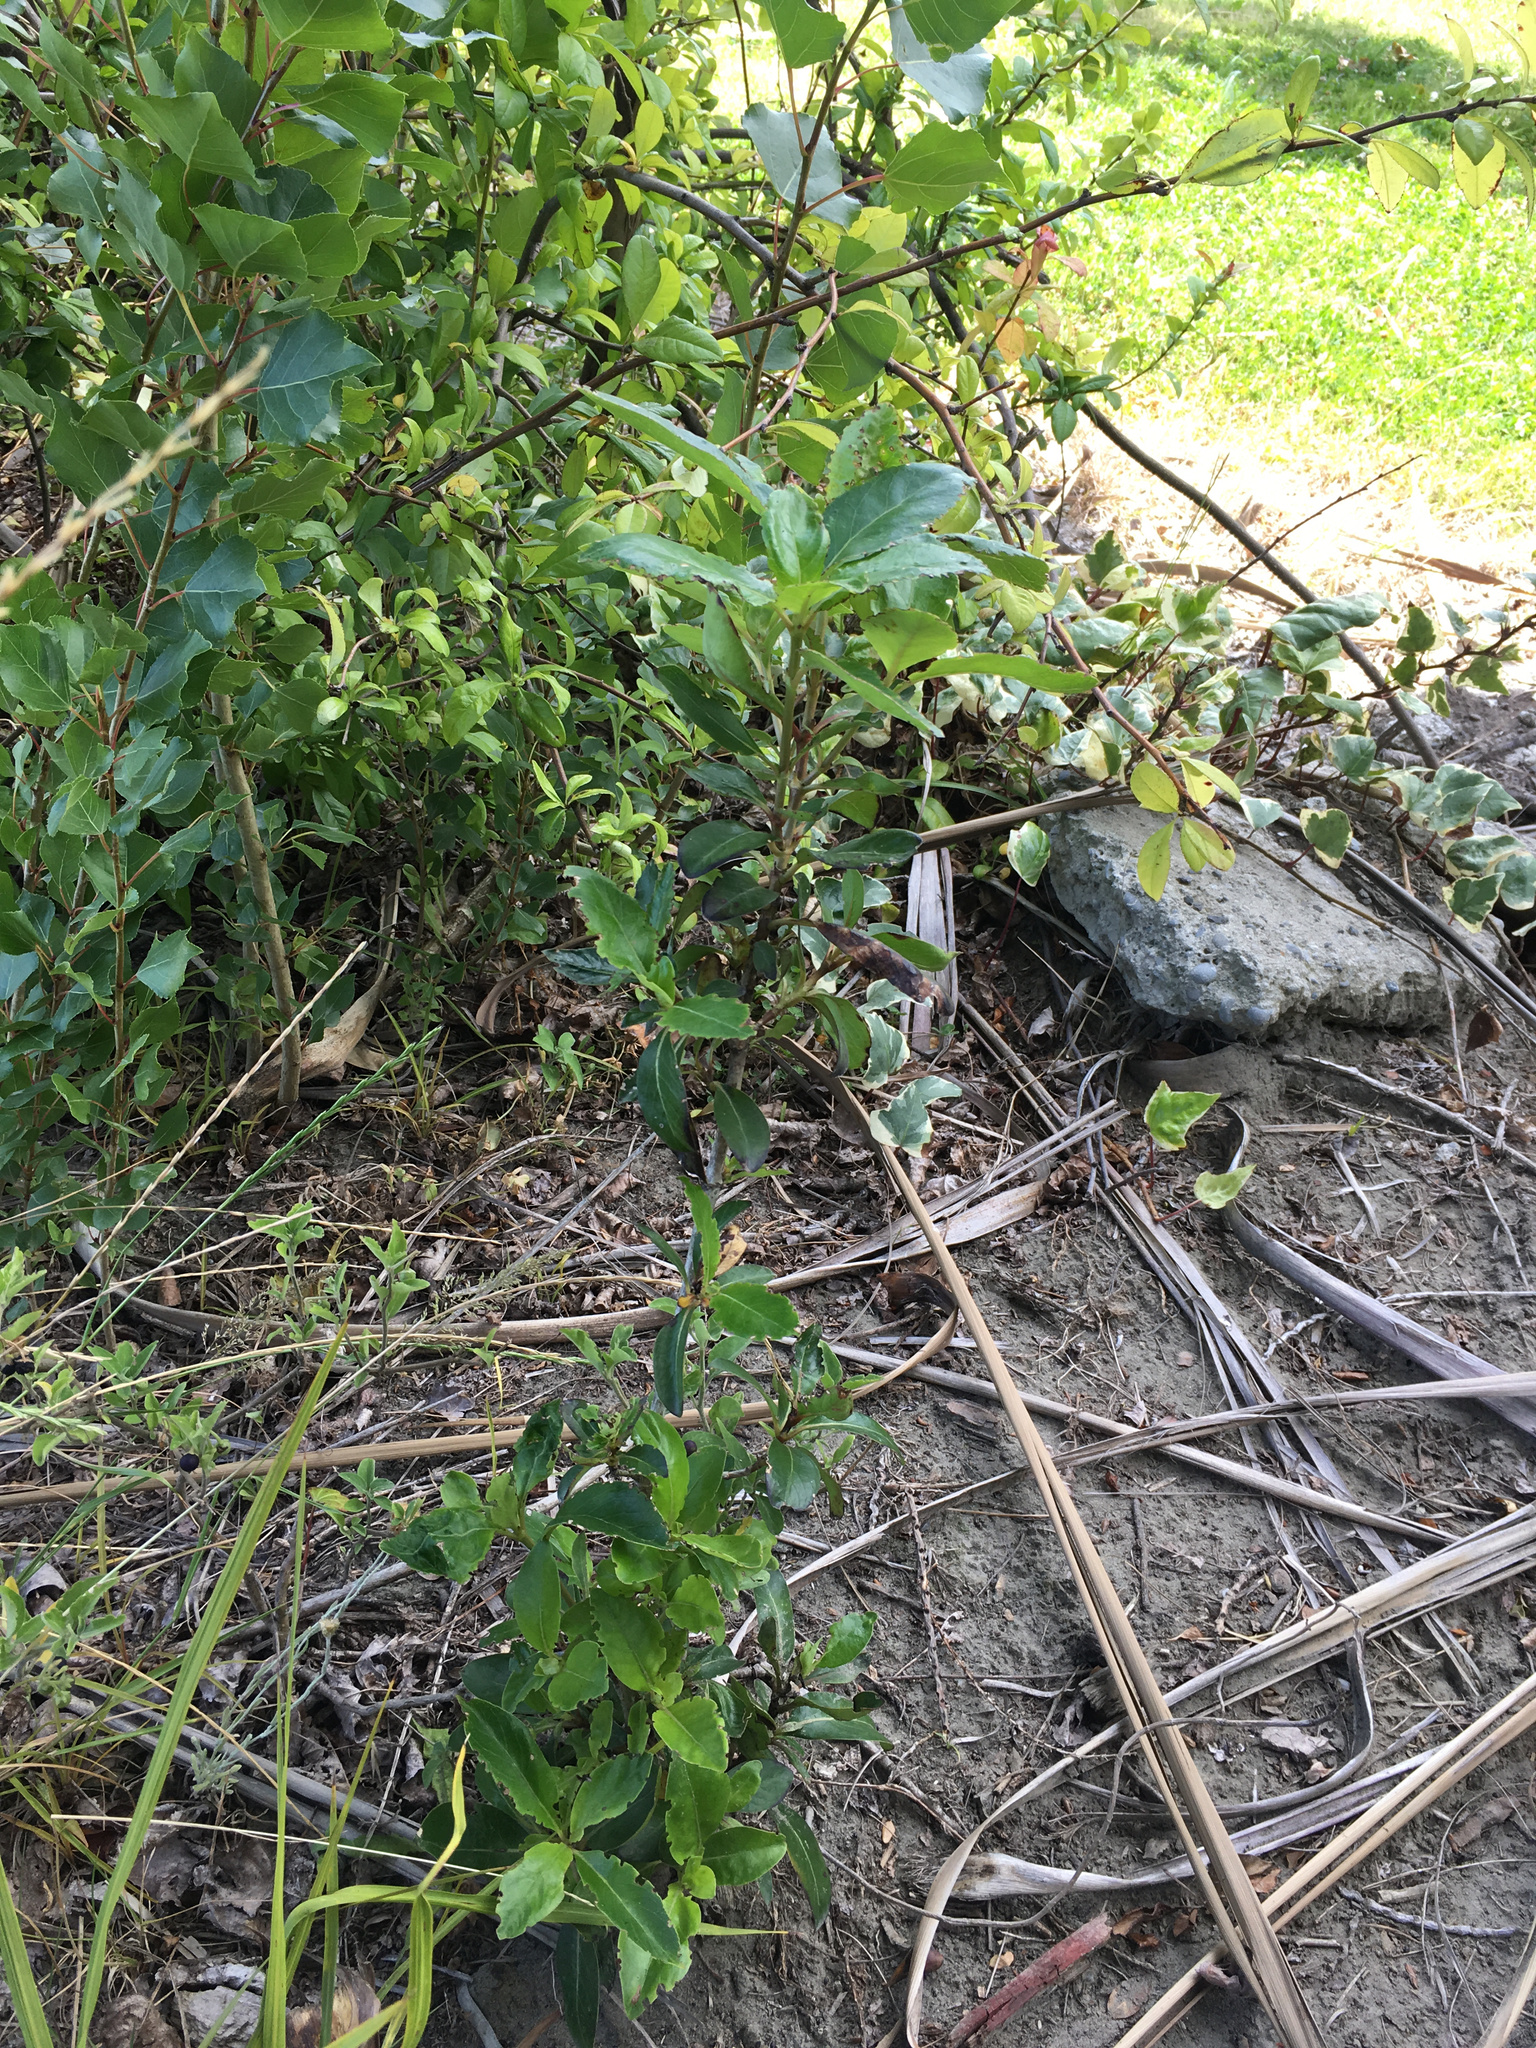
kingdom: Plantae
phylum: Tracheophyta
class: Magnoliopsida
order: Gentianales
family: Rubiaceae
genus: Coprosma
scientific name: Coprosma robusta
